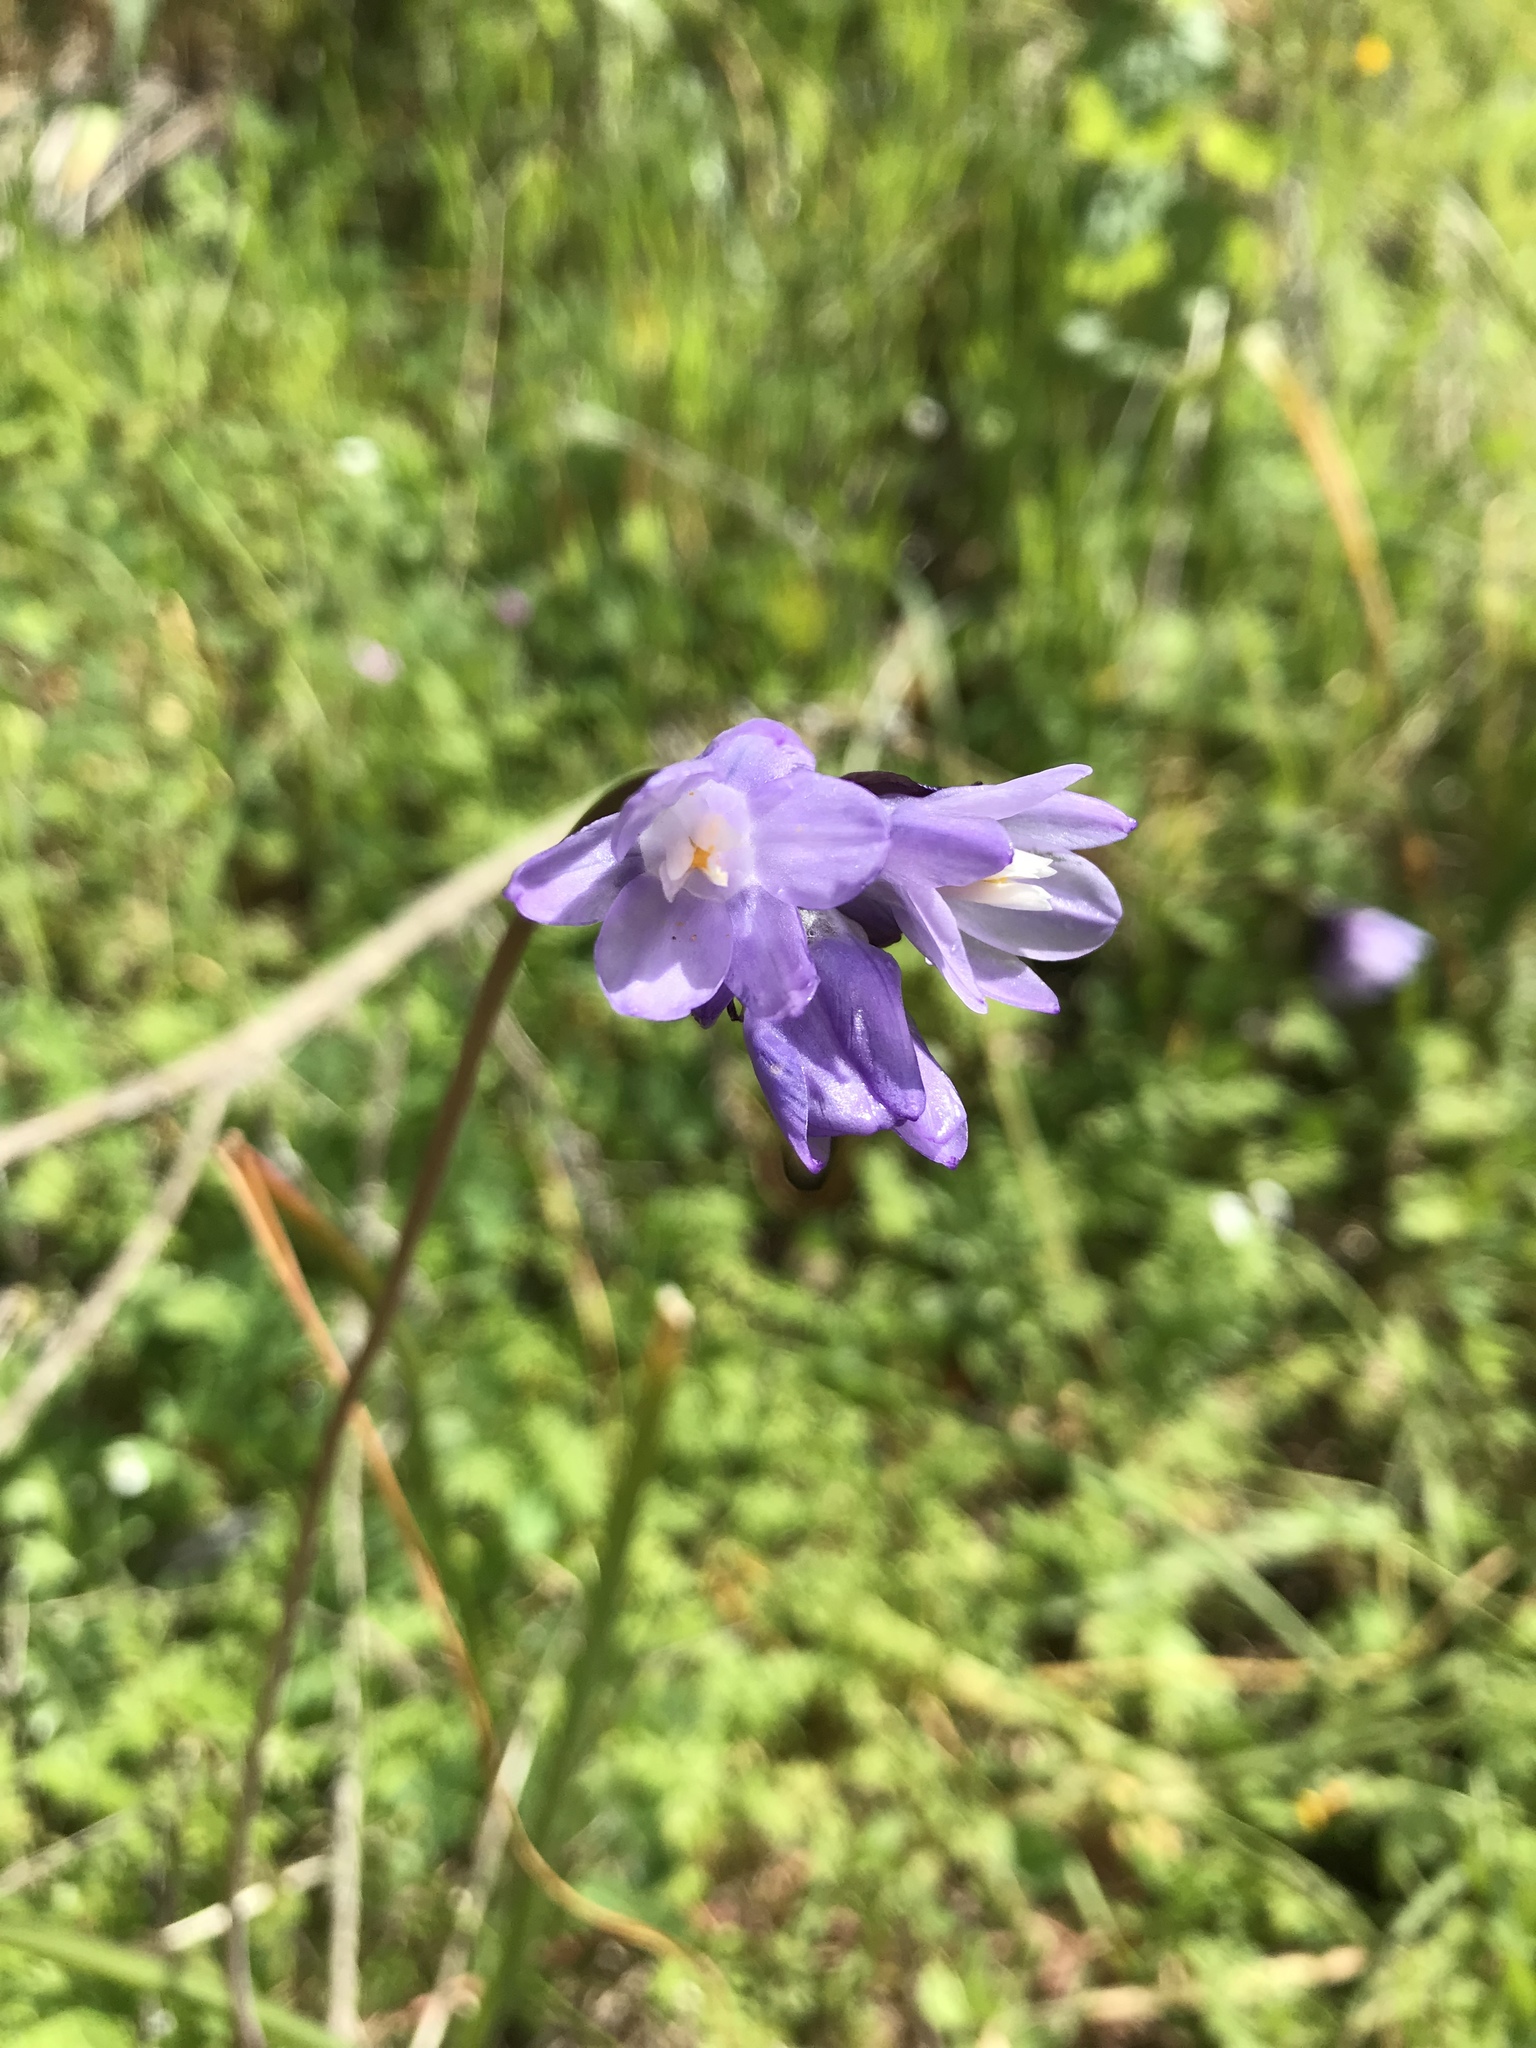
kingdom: Plantae
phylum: Tracheophyta
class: Liliopsida
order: Asparagales
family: Asparagaceae
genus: Dipterostemon
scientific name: Dipterostemon capitatus
